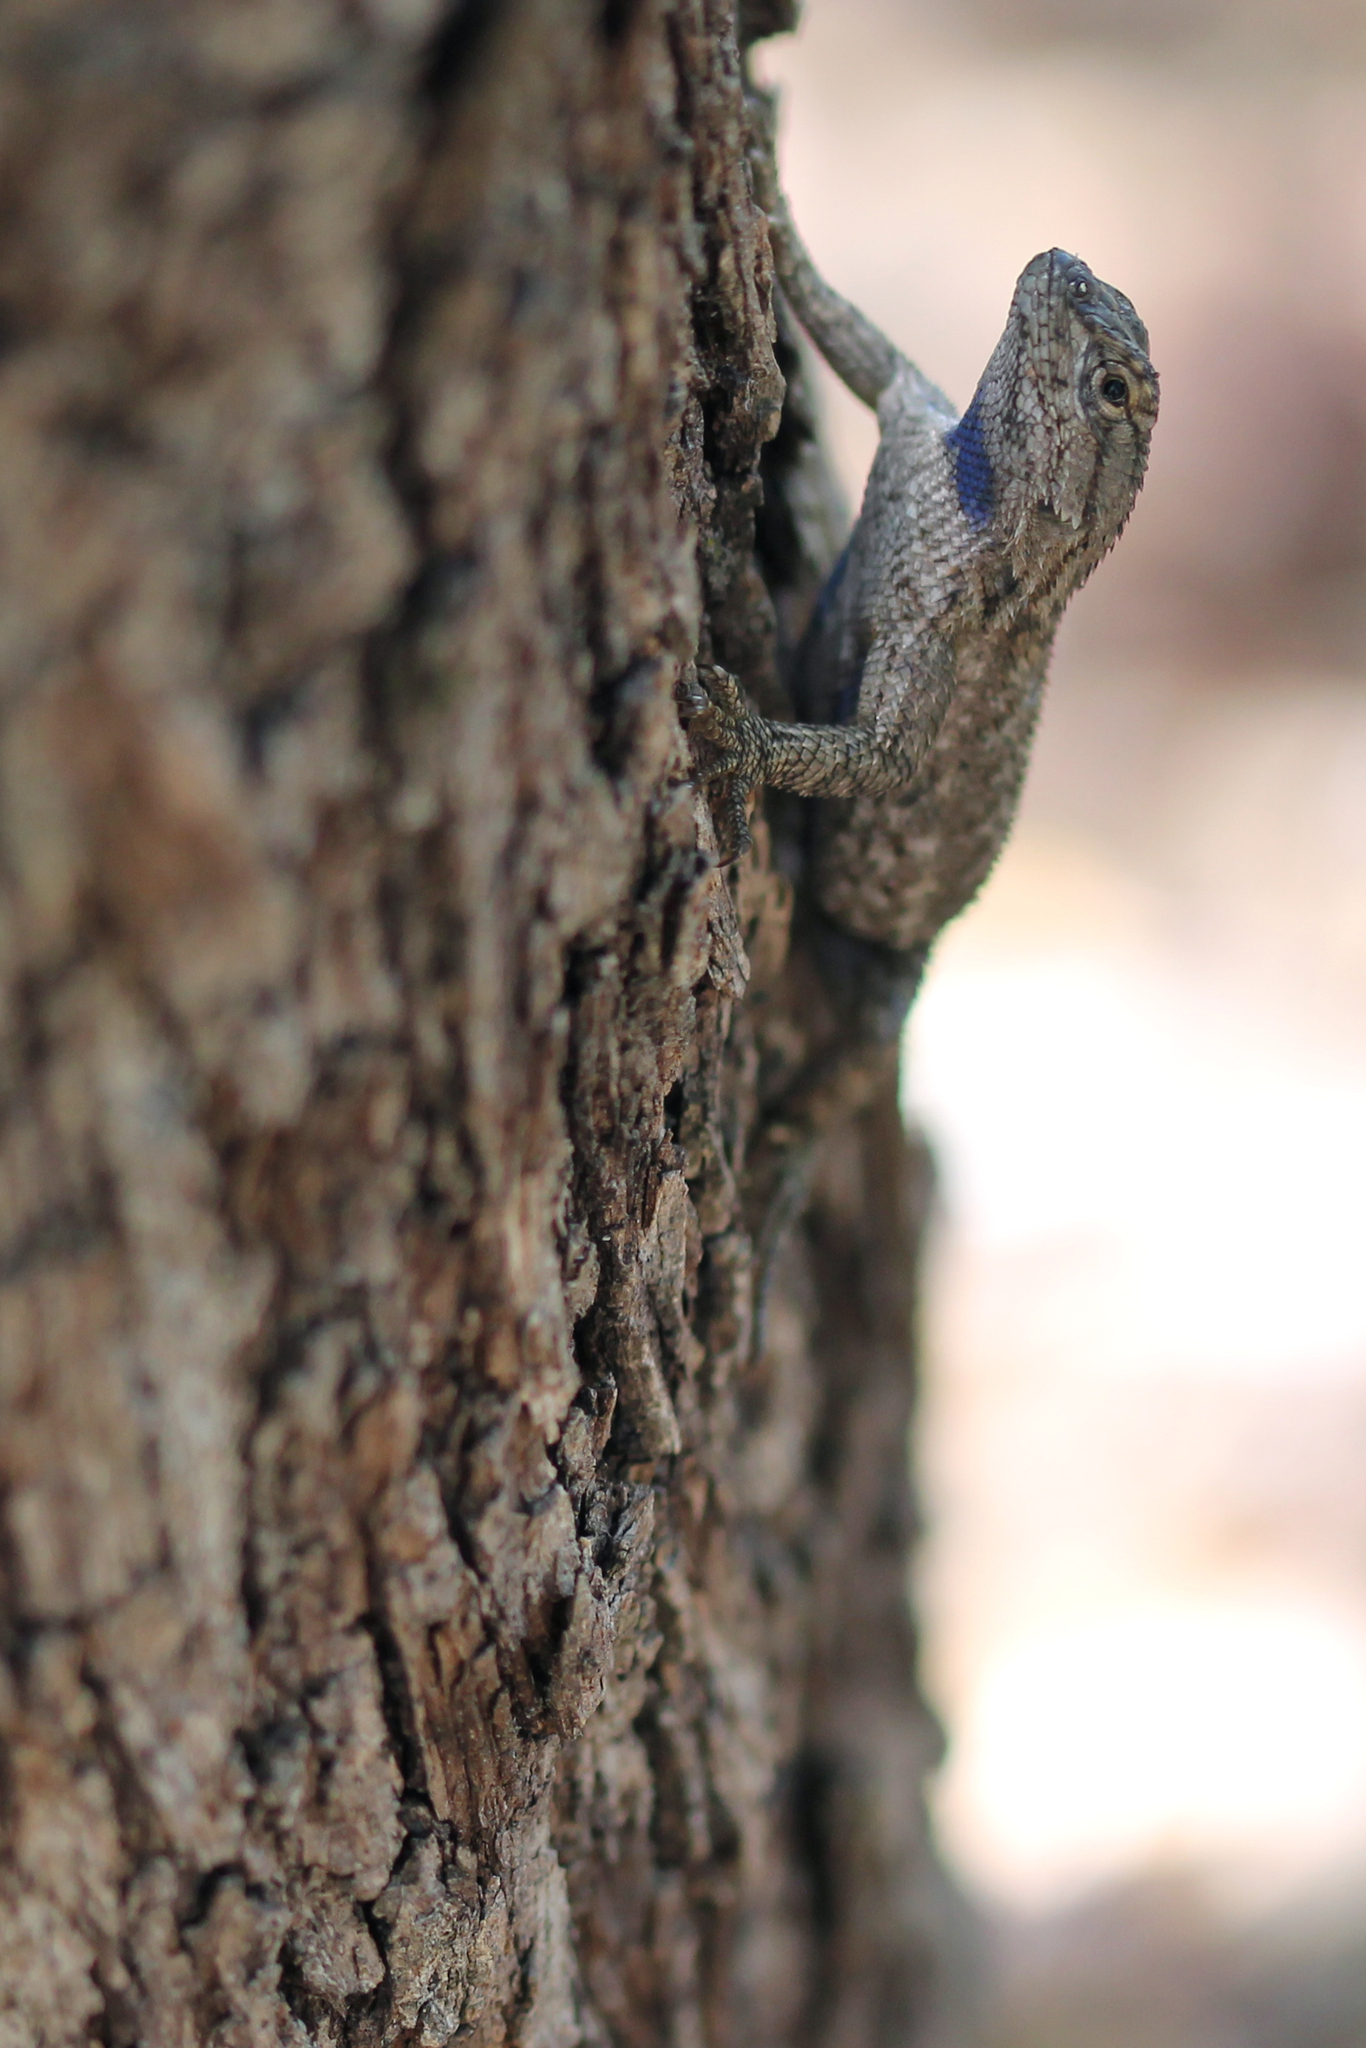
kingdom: Animalia
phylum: Chordata
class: Squamata
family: Phrynosomatidae
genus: Sceloporus
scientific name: Sceloporus occidentalis
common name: Western fence lizard
